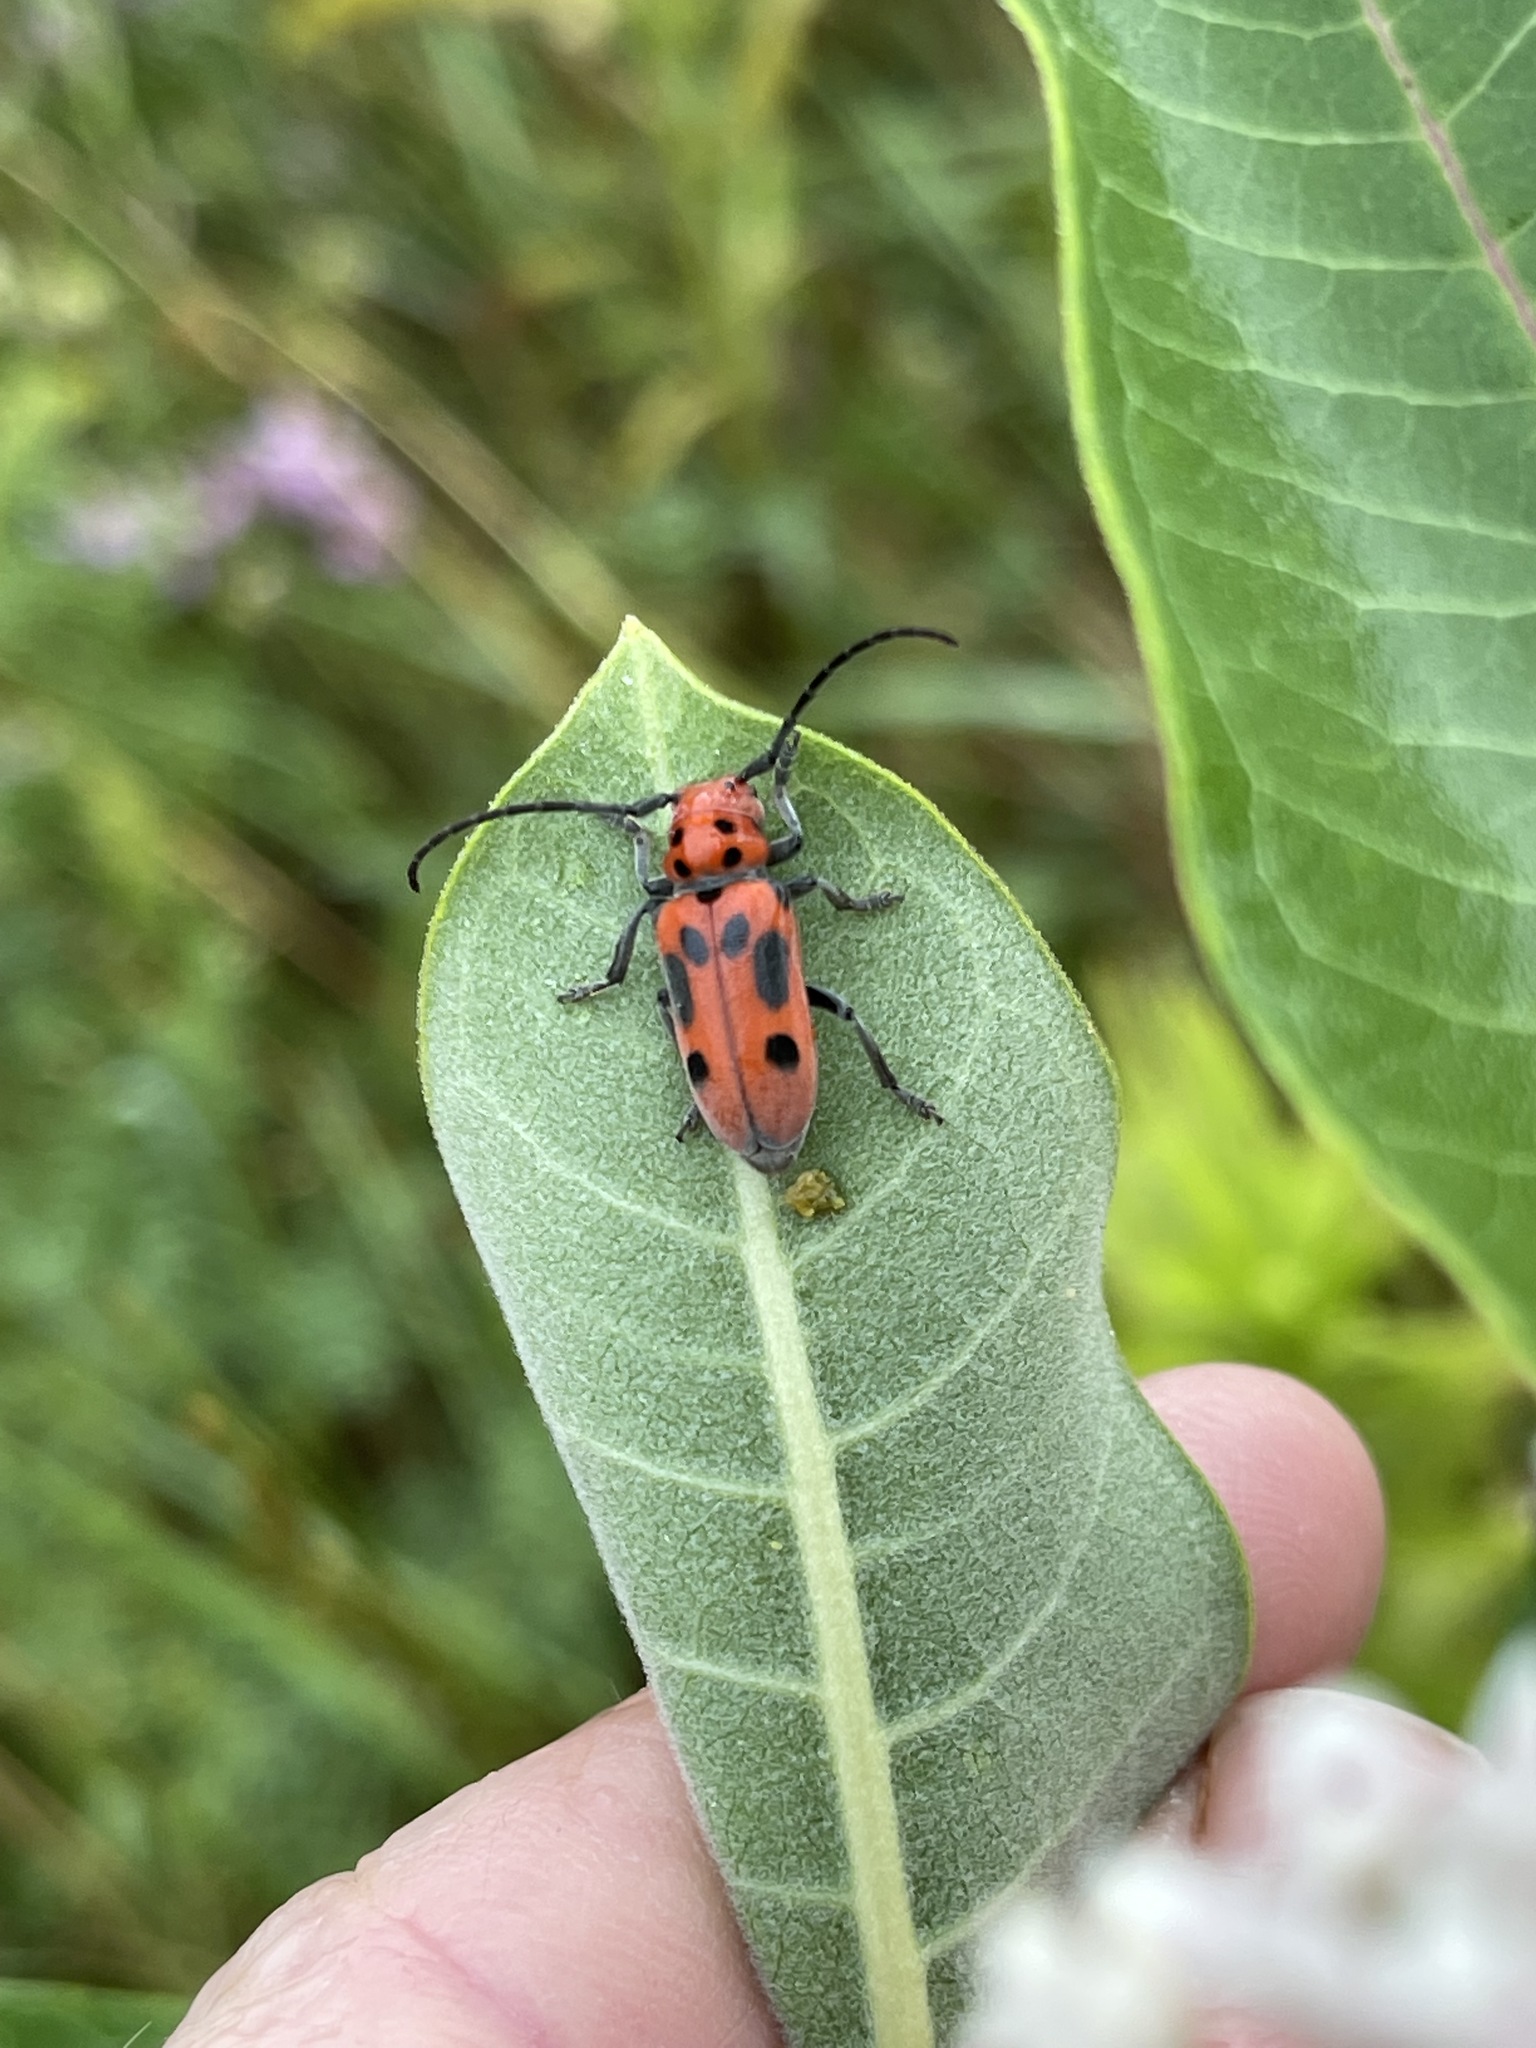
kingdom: Animalia
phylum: Arthropoda
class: Insecta
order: Coleoptera
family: Cerambycidae
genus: Tetraopes
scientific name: Tetraopes tetrophthalmus
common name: Red milkweed beetle
